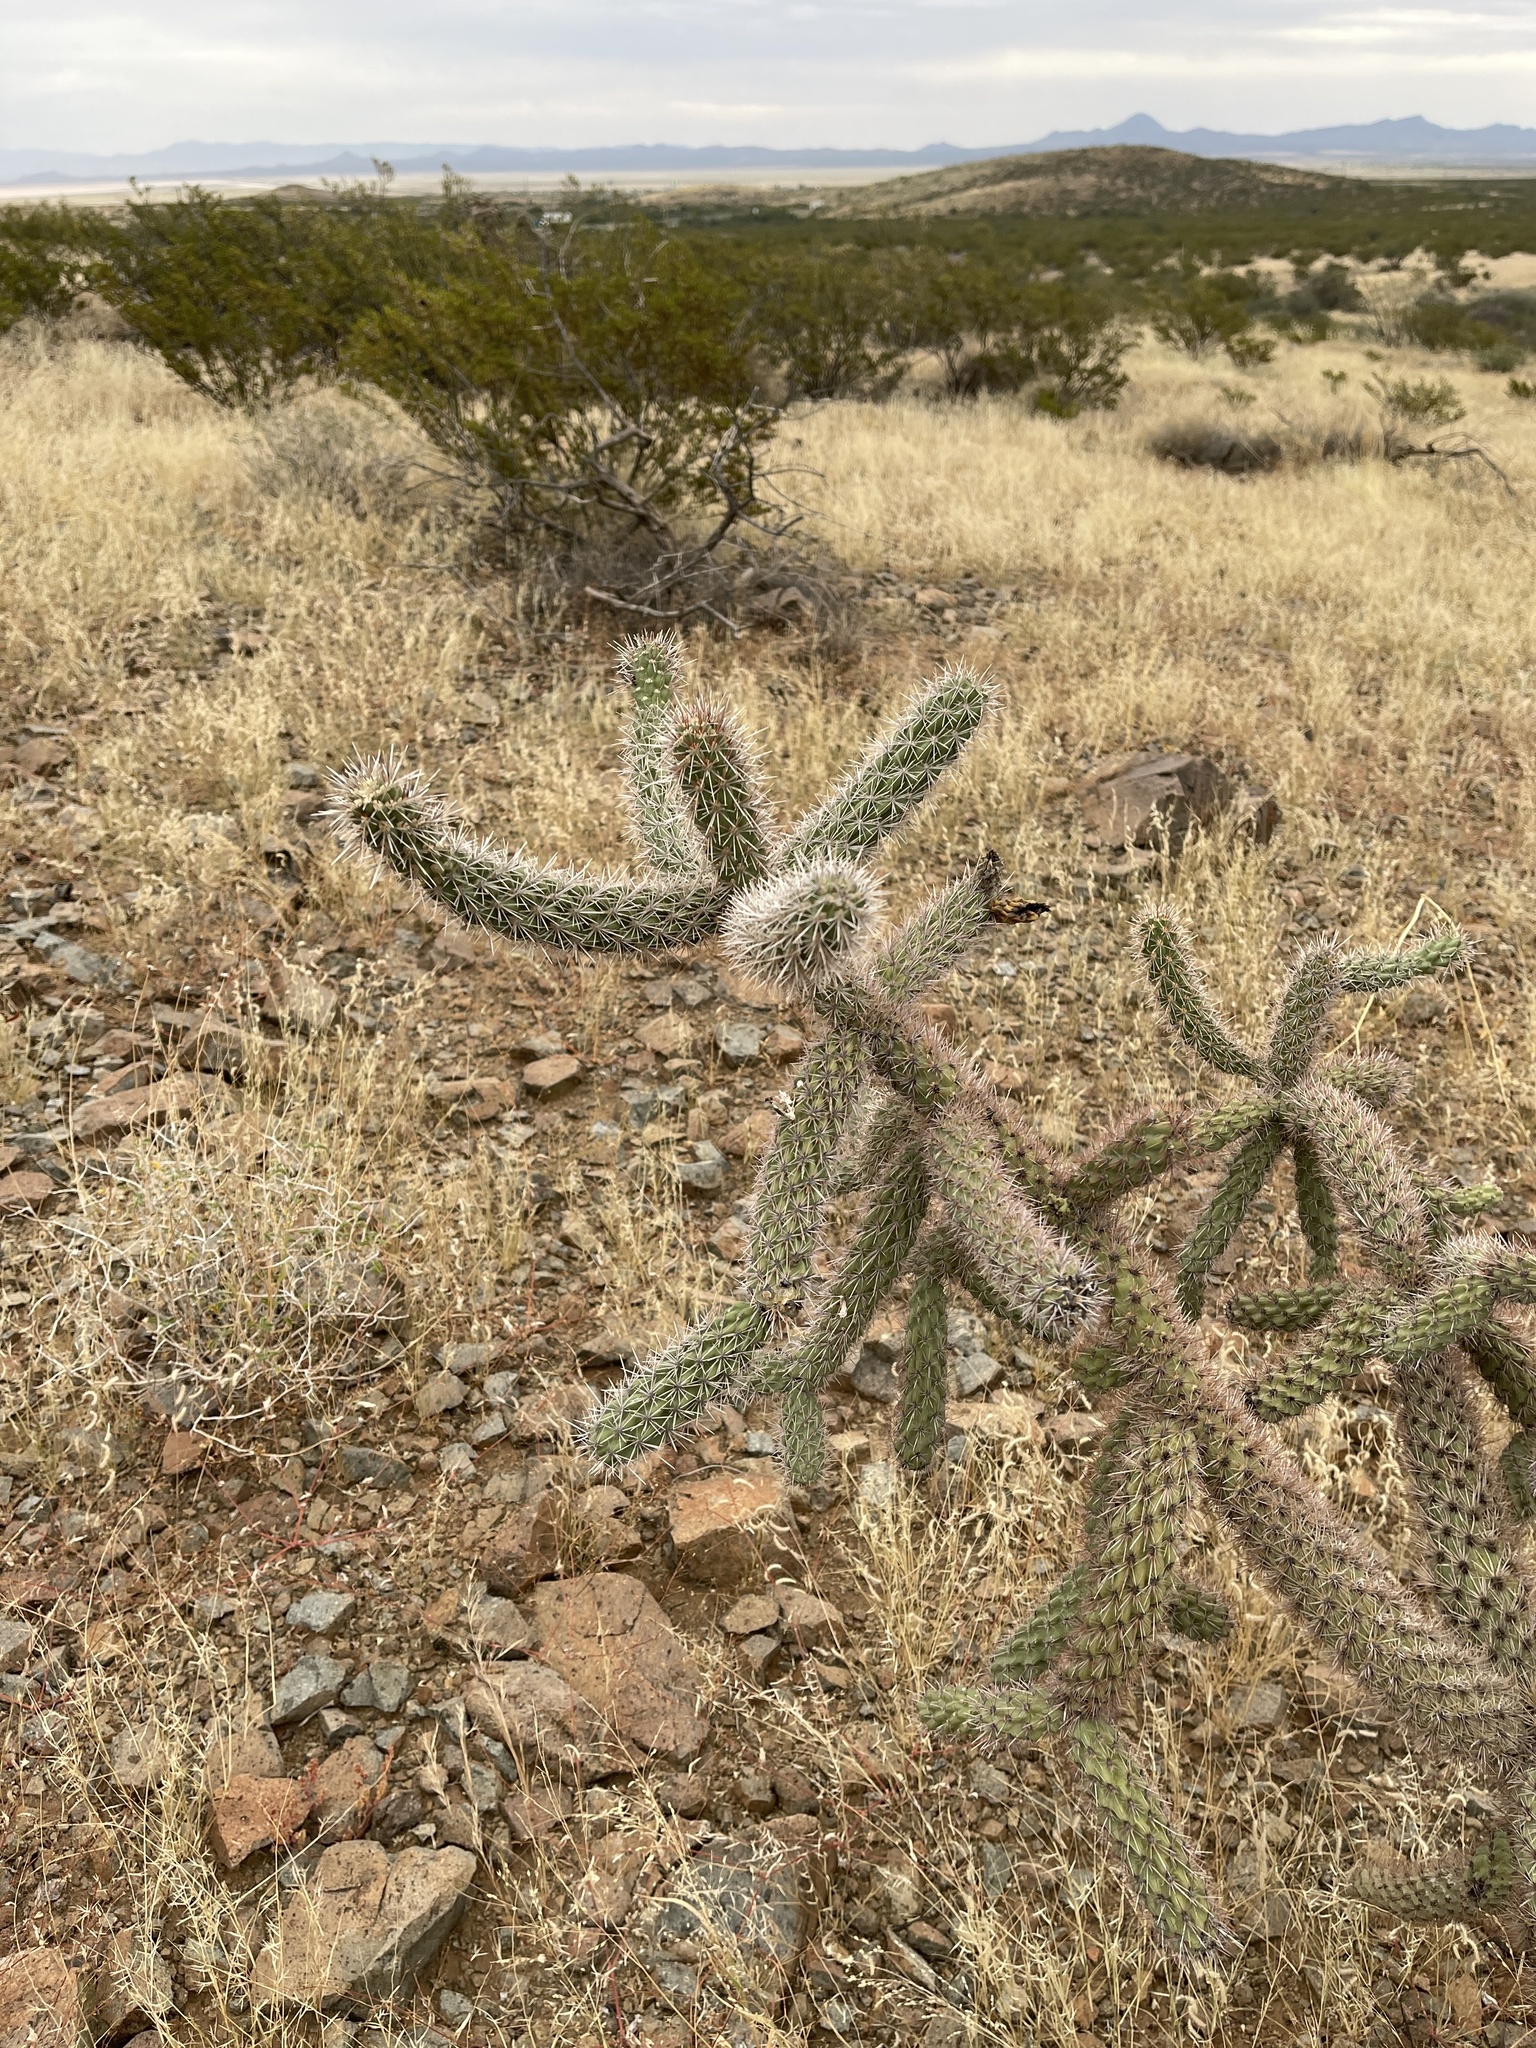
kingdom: Plantae
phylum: Tracheophyta
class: Magnoliopsida
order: Caryophyllales
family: Cactaceae
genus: Cylindropuntia
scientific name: Cylindropuntia imbricata
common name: Candelabrum cactus
